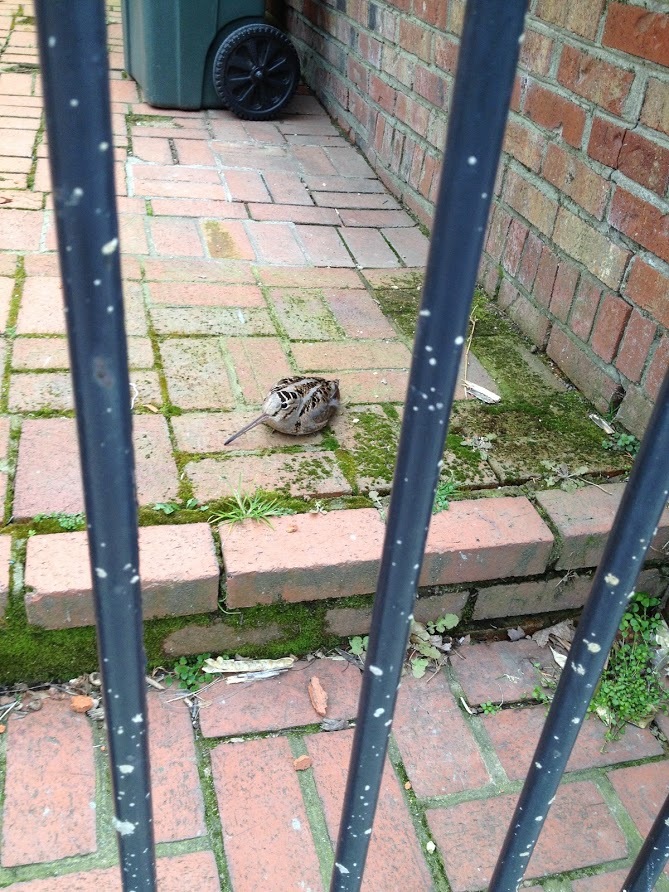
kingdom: Animalia
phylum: Chordata
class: Aves
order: Charadriiformes
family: Scolopacidae
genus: Scolopax
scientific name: Scolopax minor
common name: American woodcock
